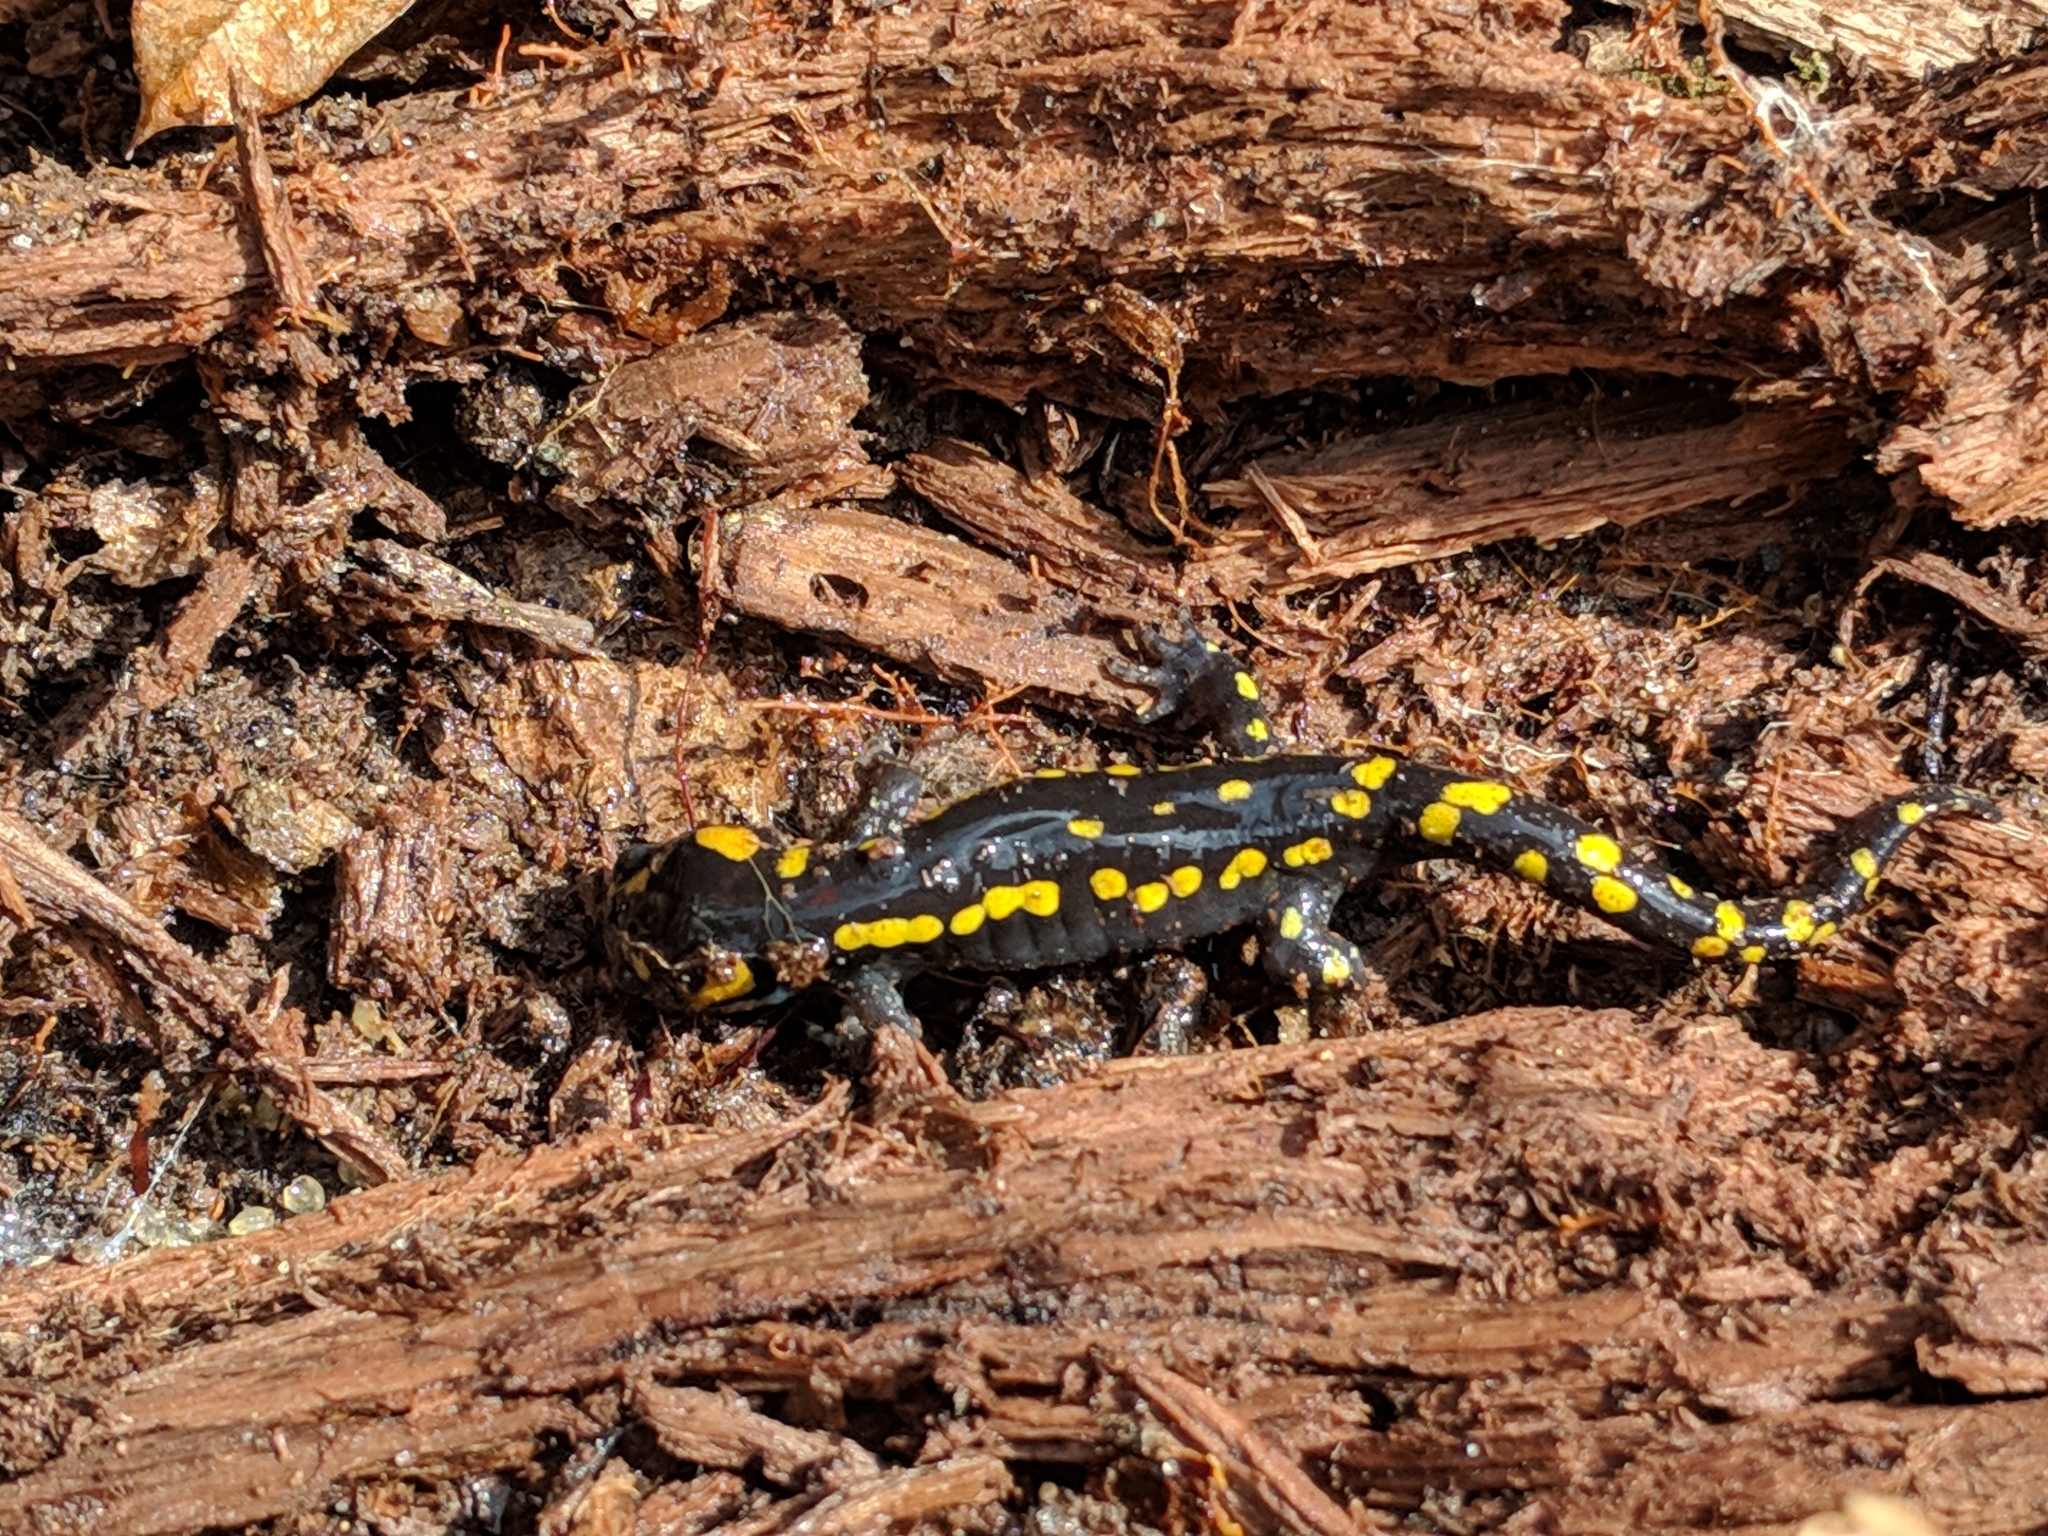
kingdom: Animalia
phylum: Chordata
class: Amphibia
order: Caudata
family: Ambystomatidae
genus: Ambystoma
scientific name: Ambystoma maculatum
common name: Spotted salamander
